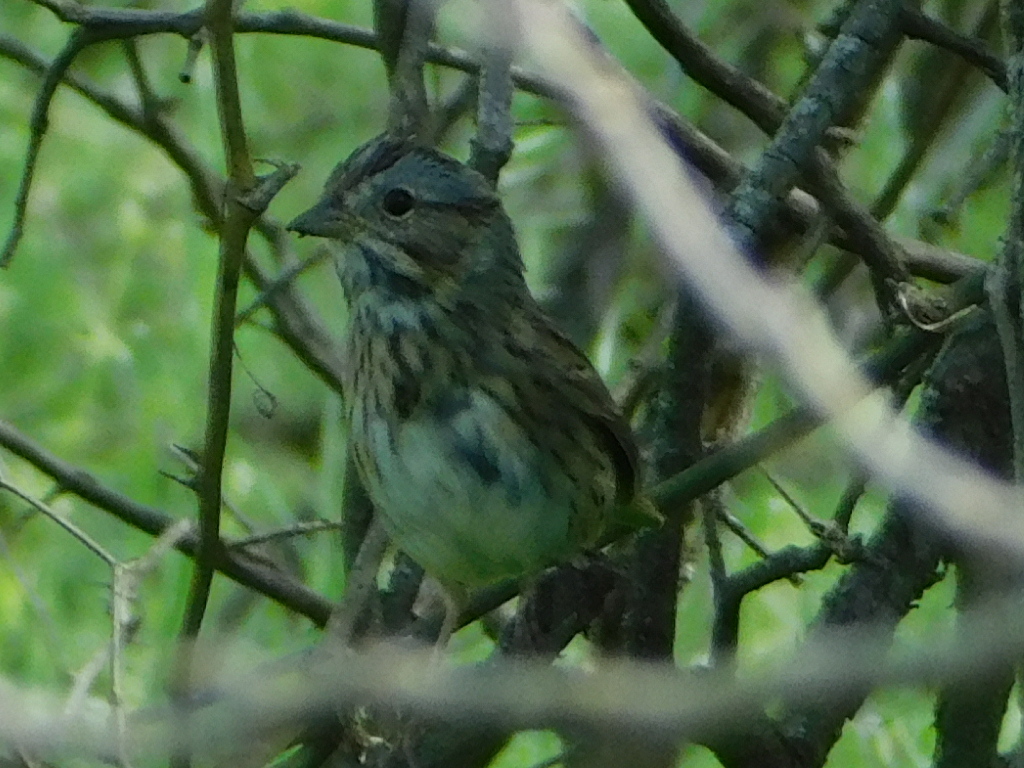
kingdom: Animalia
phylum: Chordata
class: Aves
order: Passeriformes
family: Passerellidae
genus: Melospiza
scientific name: Melospiza lincolnii
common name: Lincoln's sparrow
